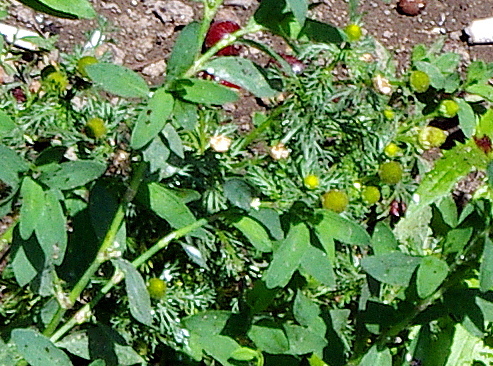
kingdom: Plantae
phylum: Tracheophyta
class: Magnoliopsida
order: Asterales
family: Asteraceae
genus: Matricaria
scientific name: Matricaria discoidea
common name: Disc mayweed
